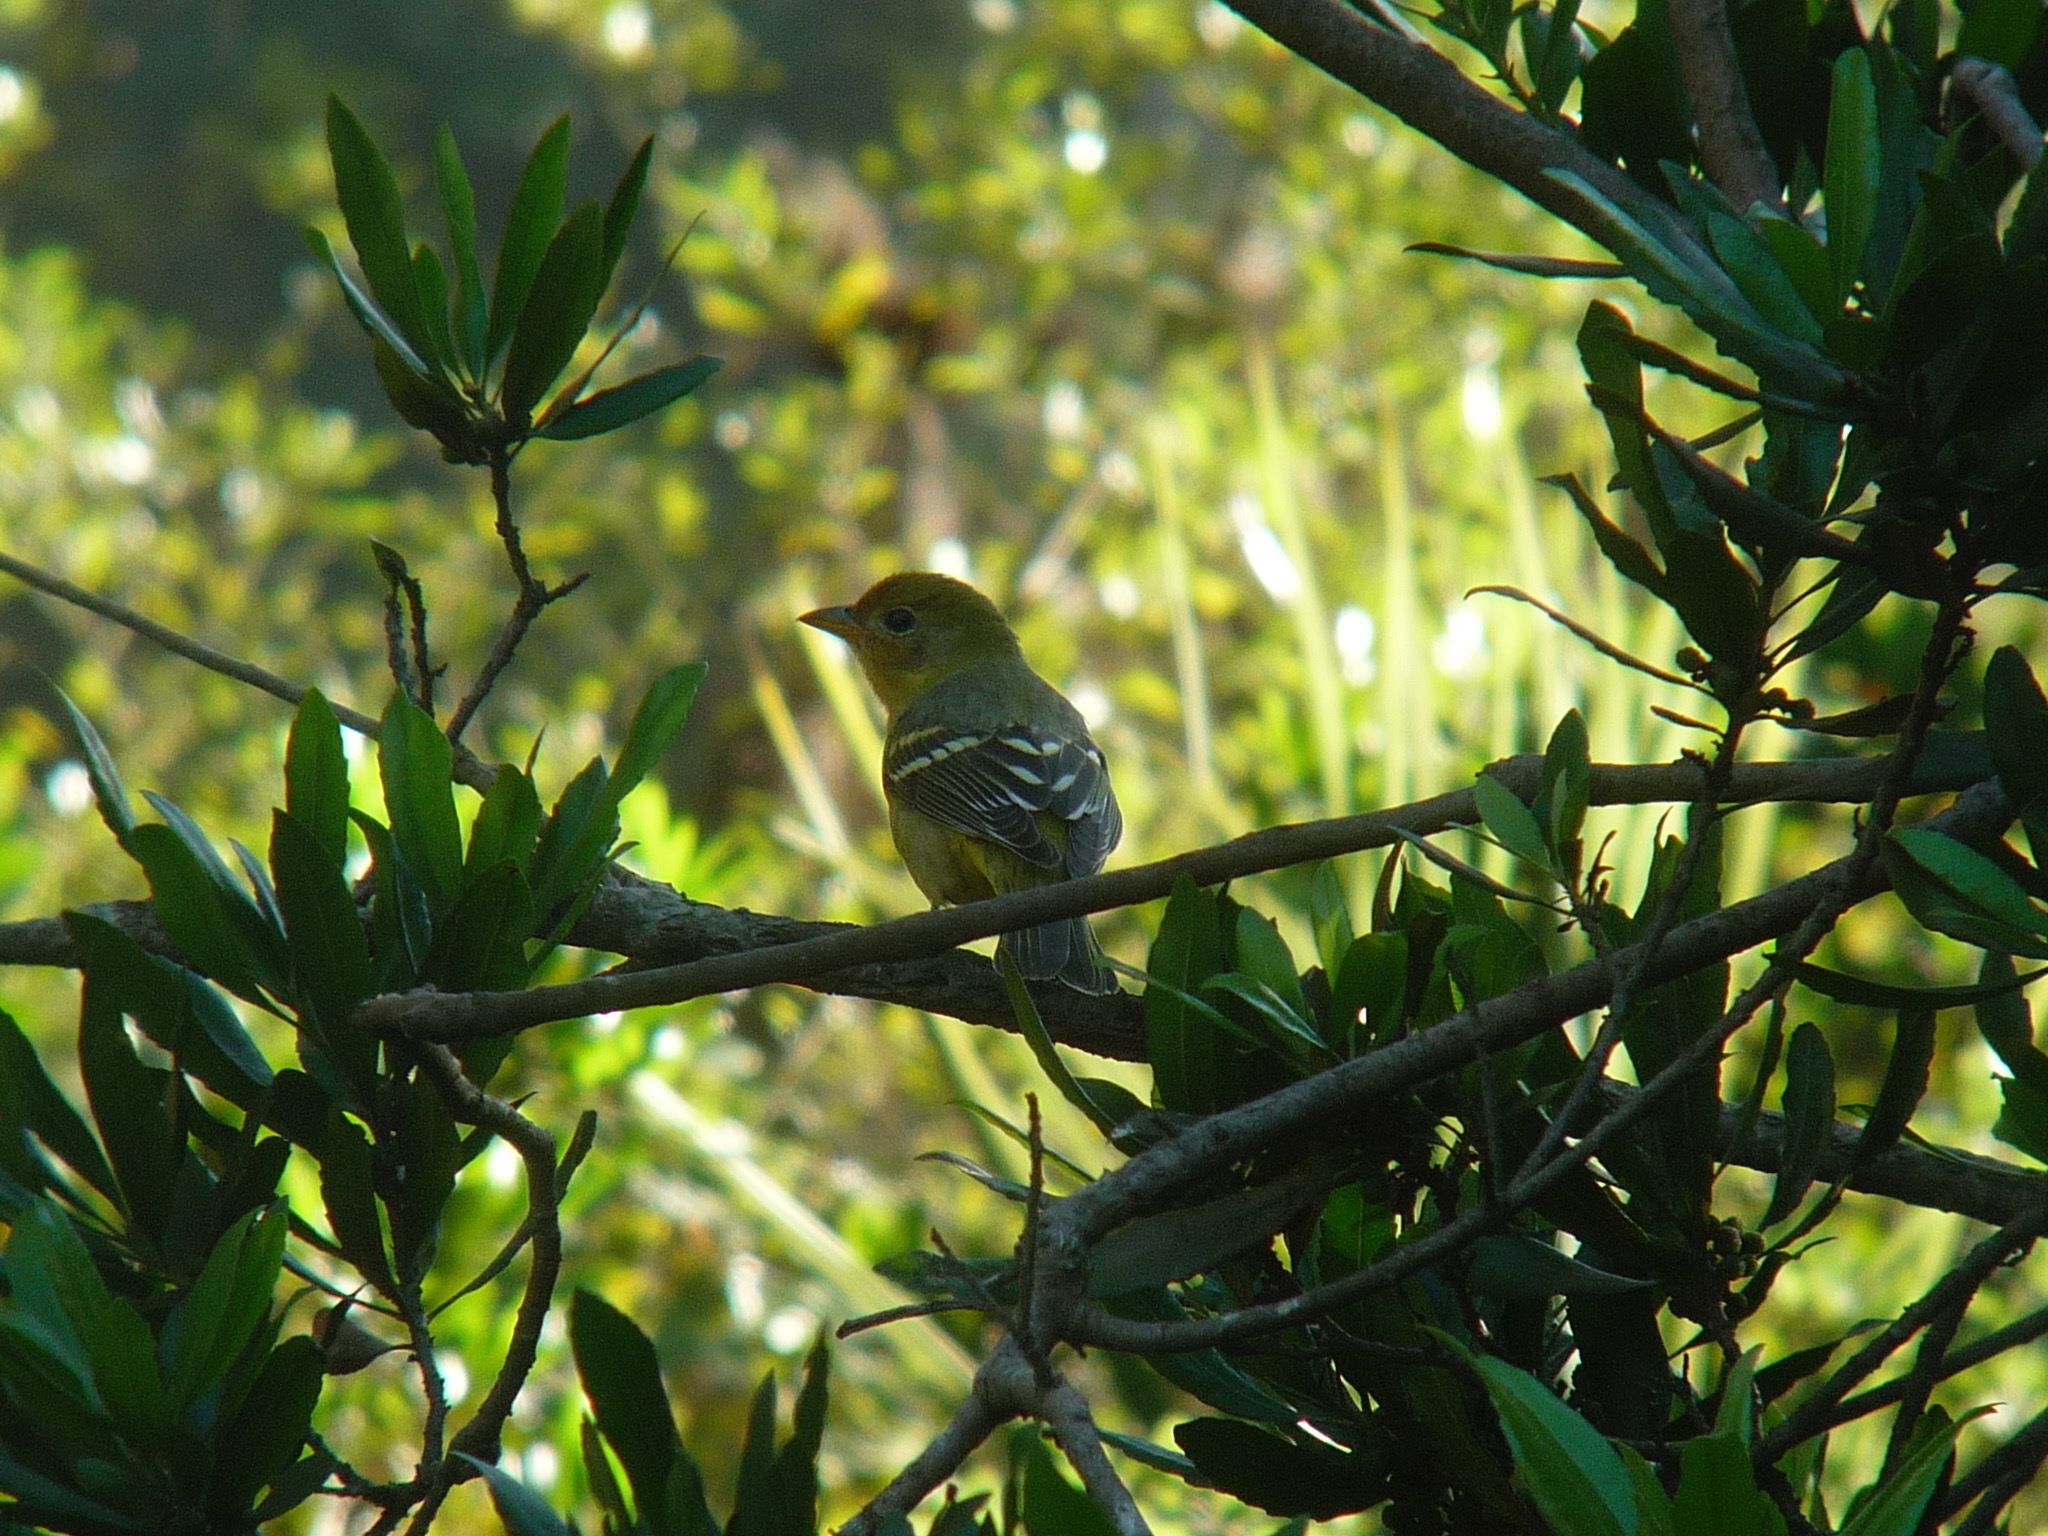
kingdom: Animalia
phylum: Chordata
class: Aves
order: Passeriformes
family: Cardinalidae
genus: Piranga
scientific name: Piranga ludoviciana
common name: Western tanager
